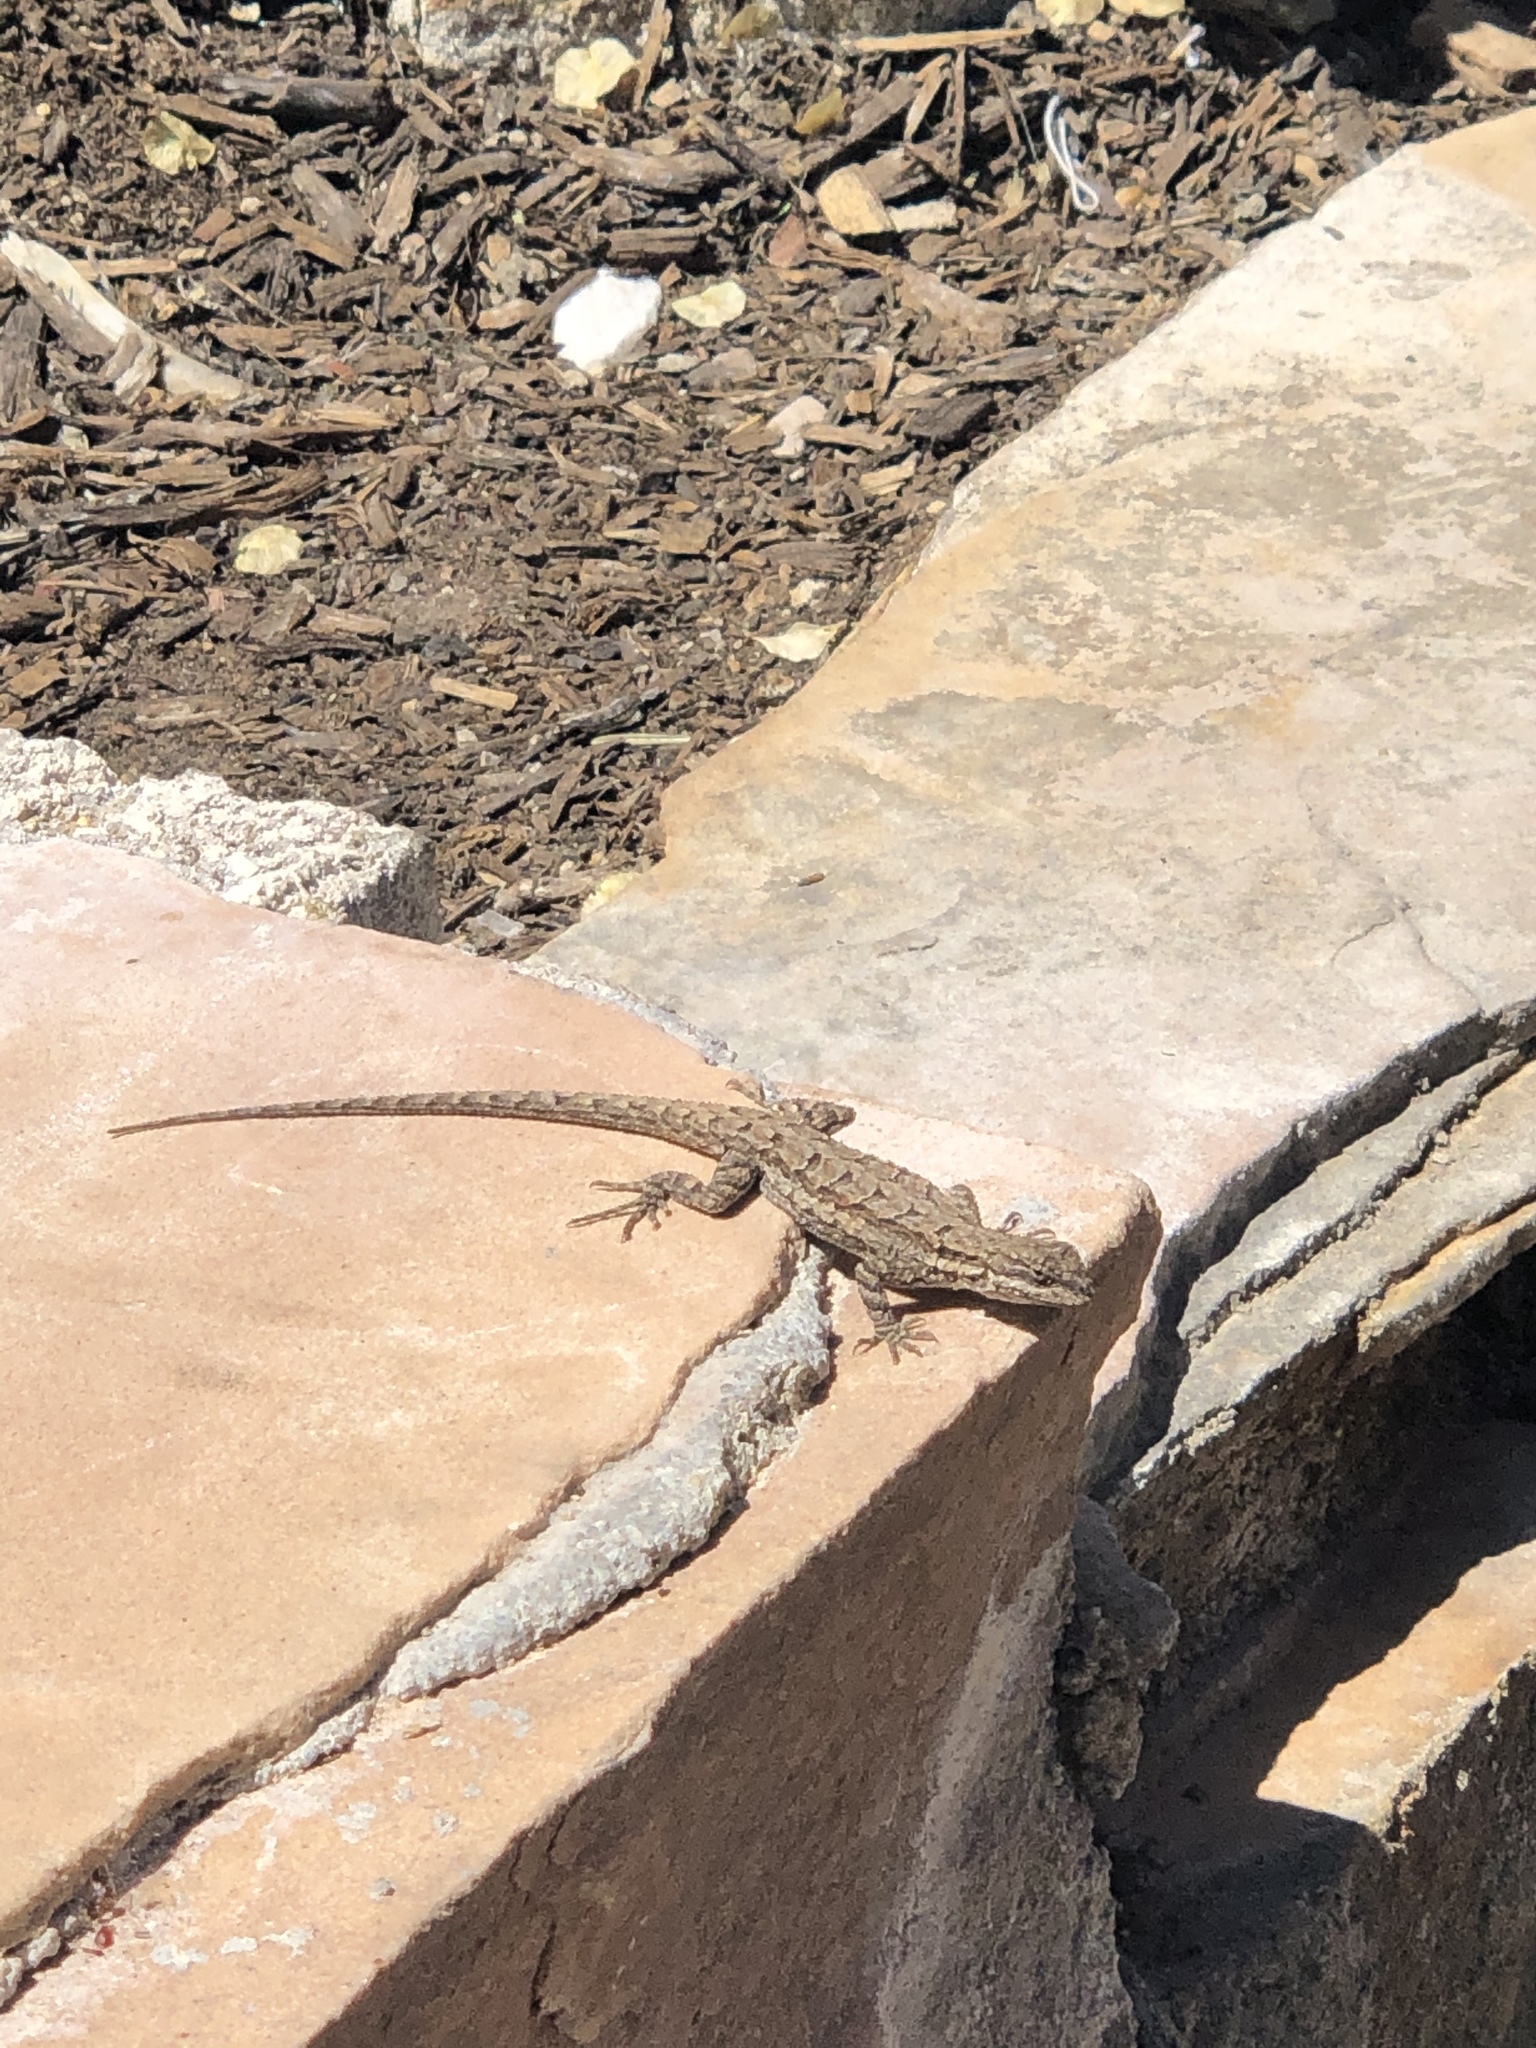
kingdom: Animalia
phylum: Chordata
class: Squamata
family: Phrynosomatidae
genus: Urosaurus
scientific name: Urosaurus ornatus
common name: Ornate tree lizard
